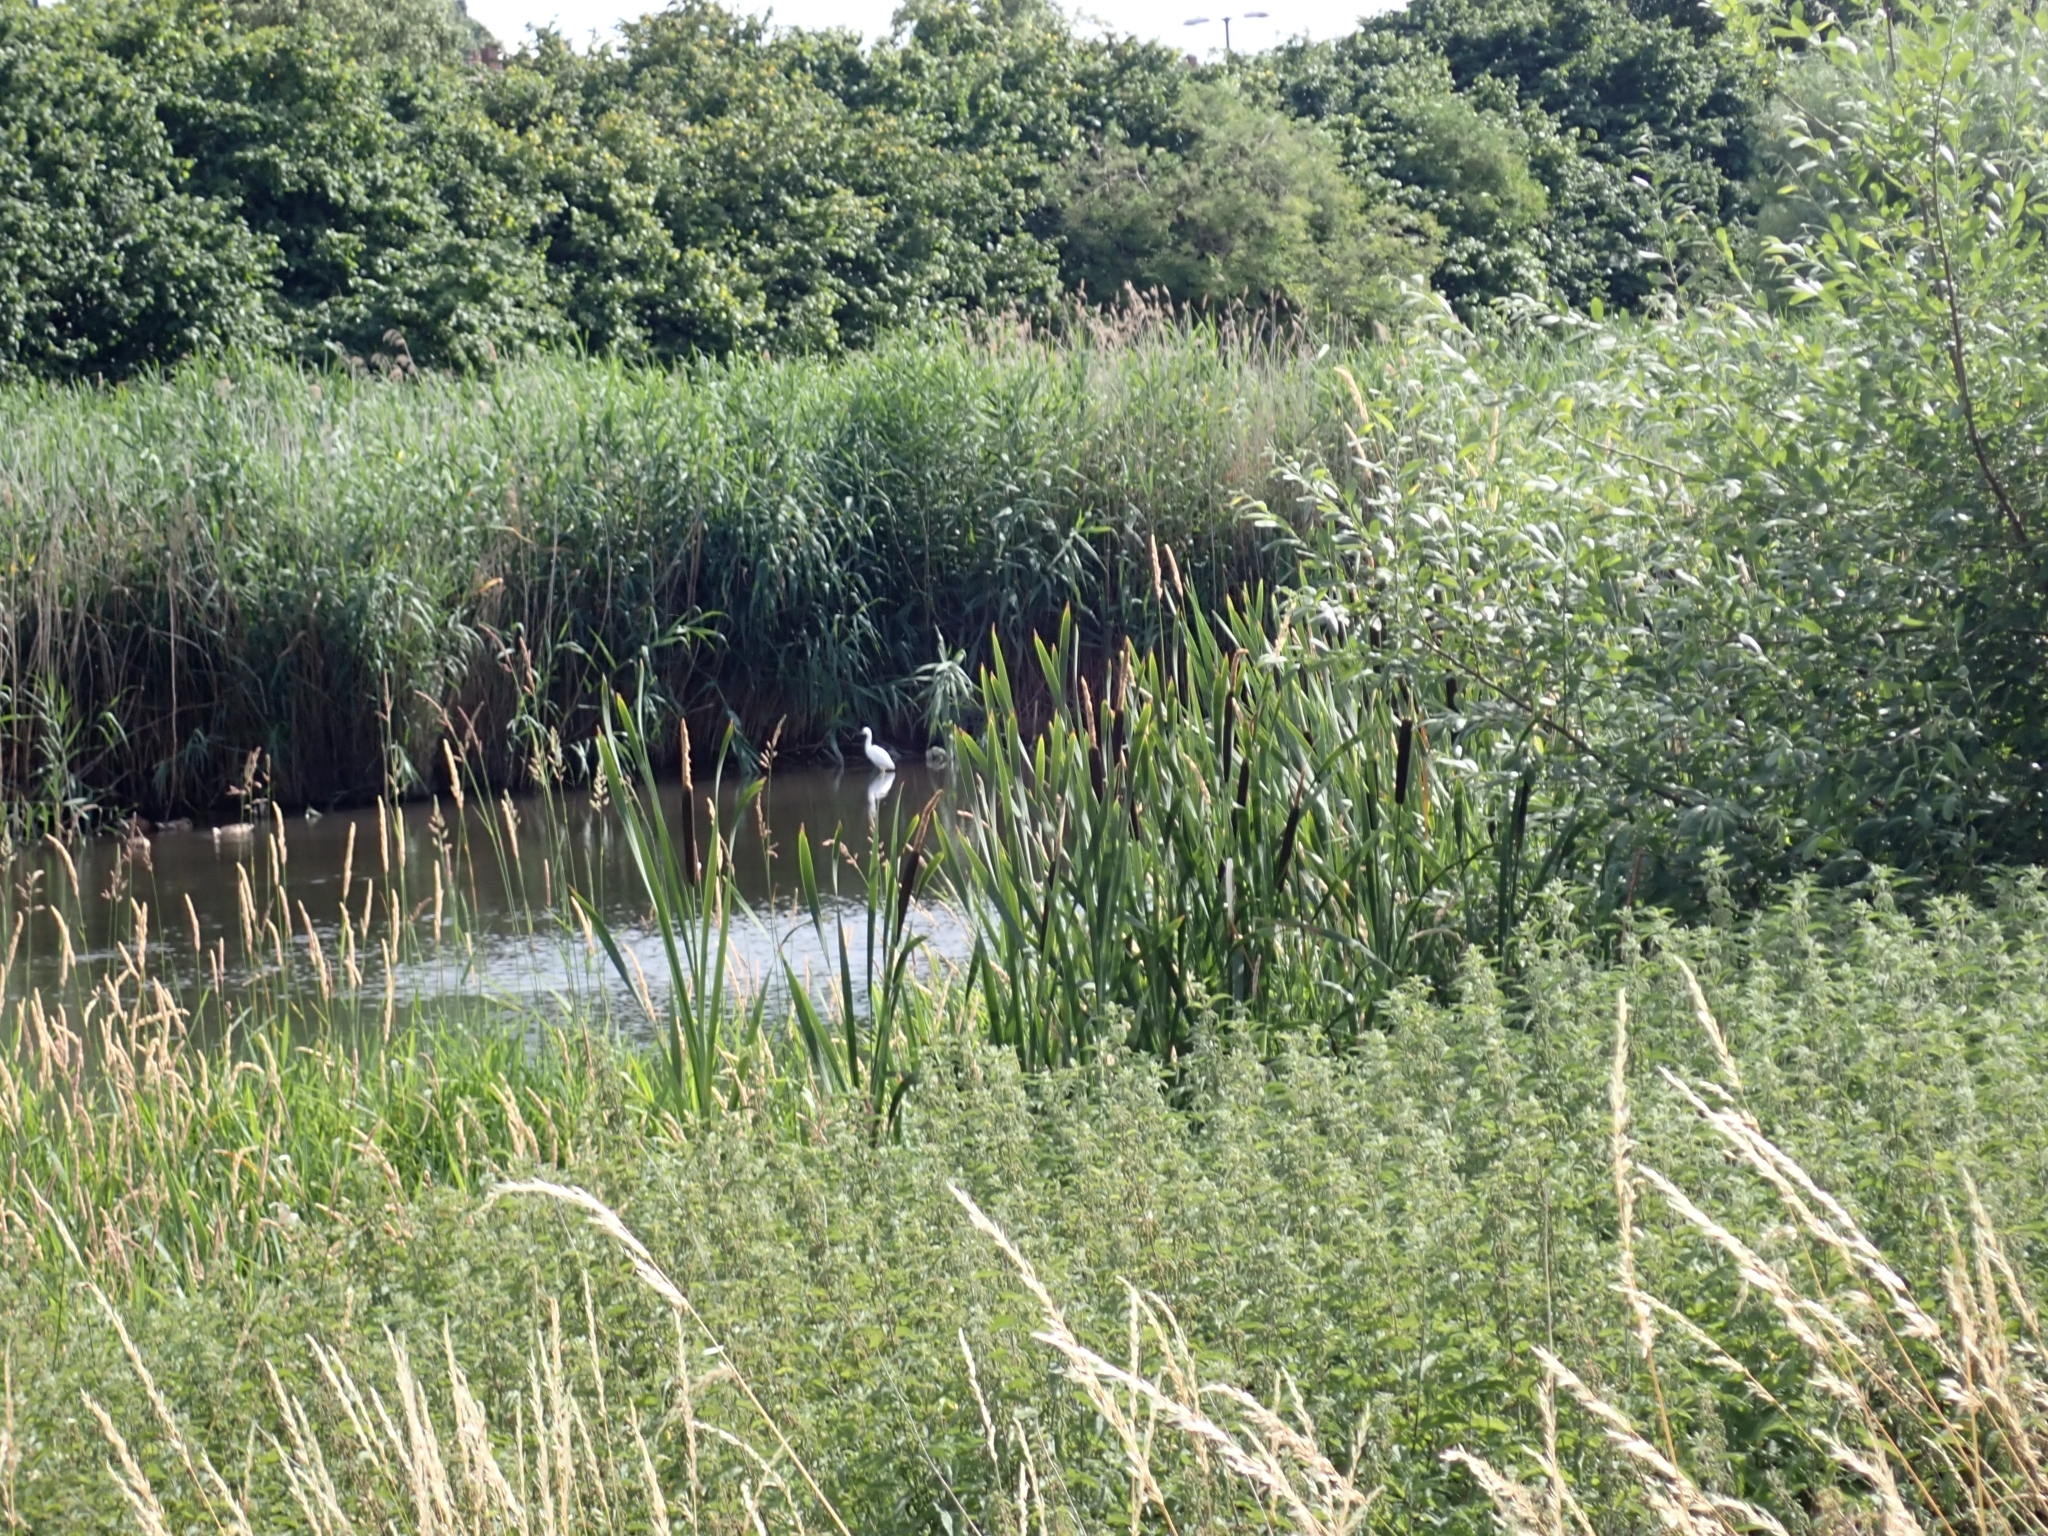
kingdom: Animalia
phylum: Chordata
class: Aves
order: Pelecaniformes
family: Ardeidae
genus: Egretta
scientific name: Egretta garzetta
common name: Little egret
